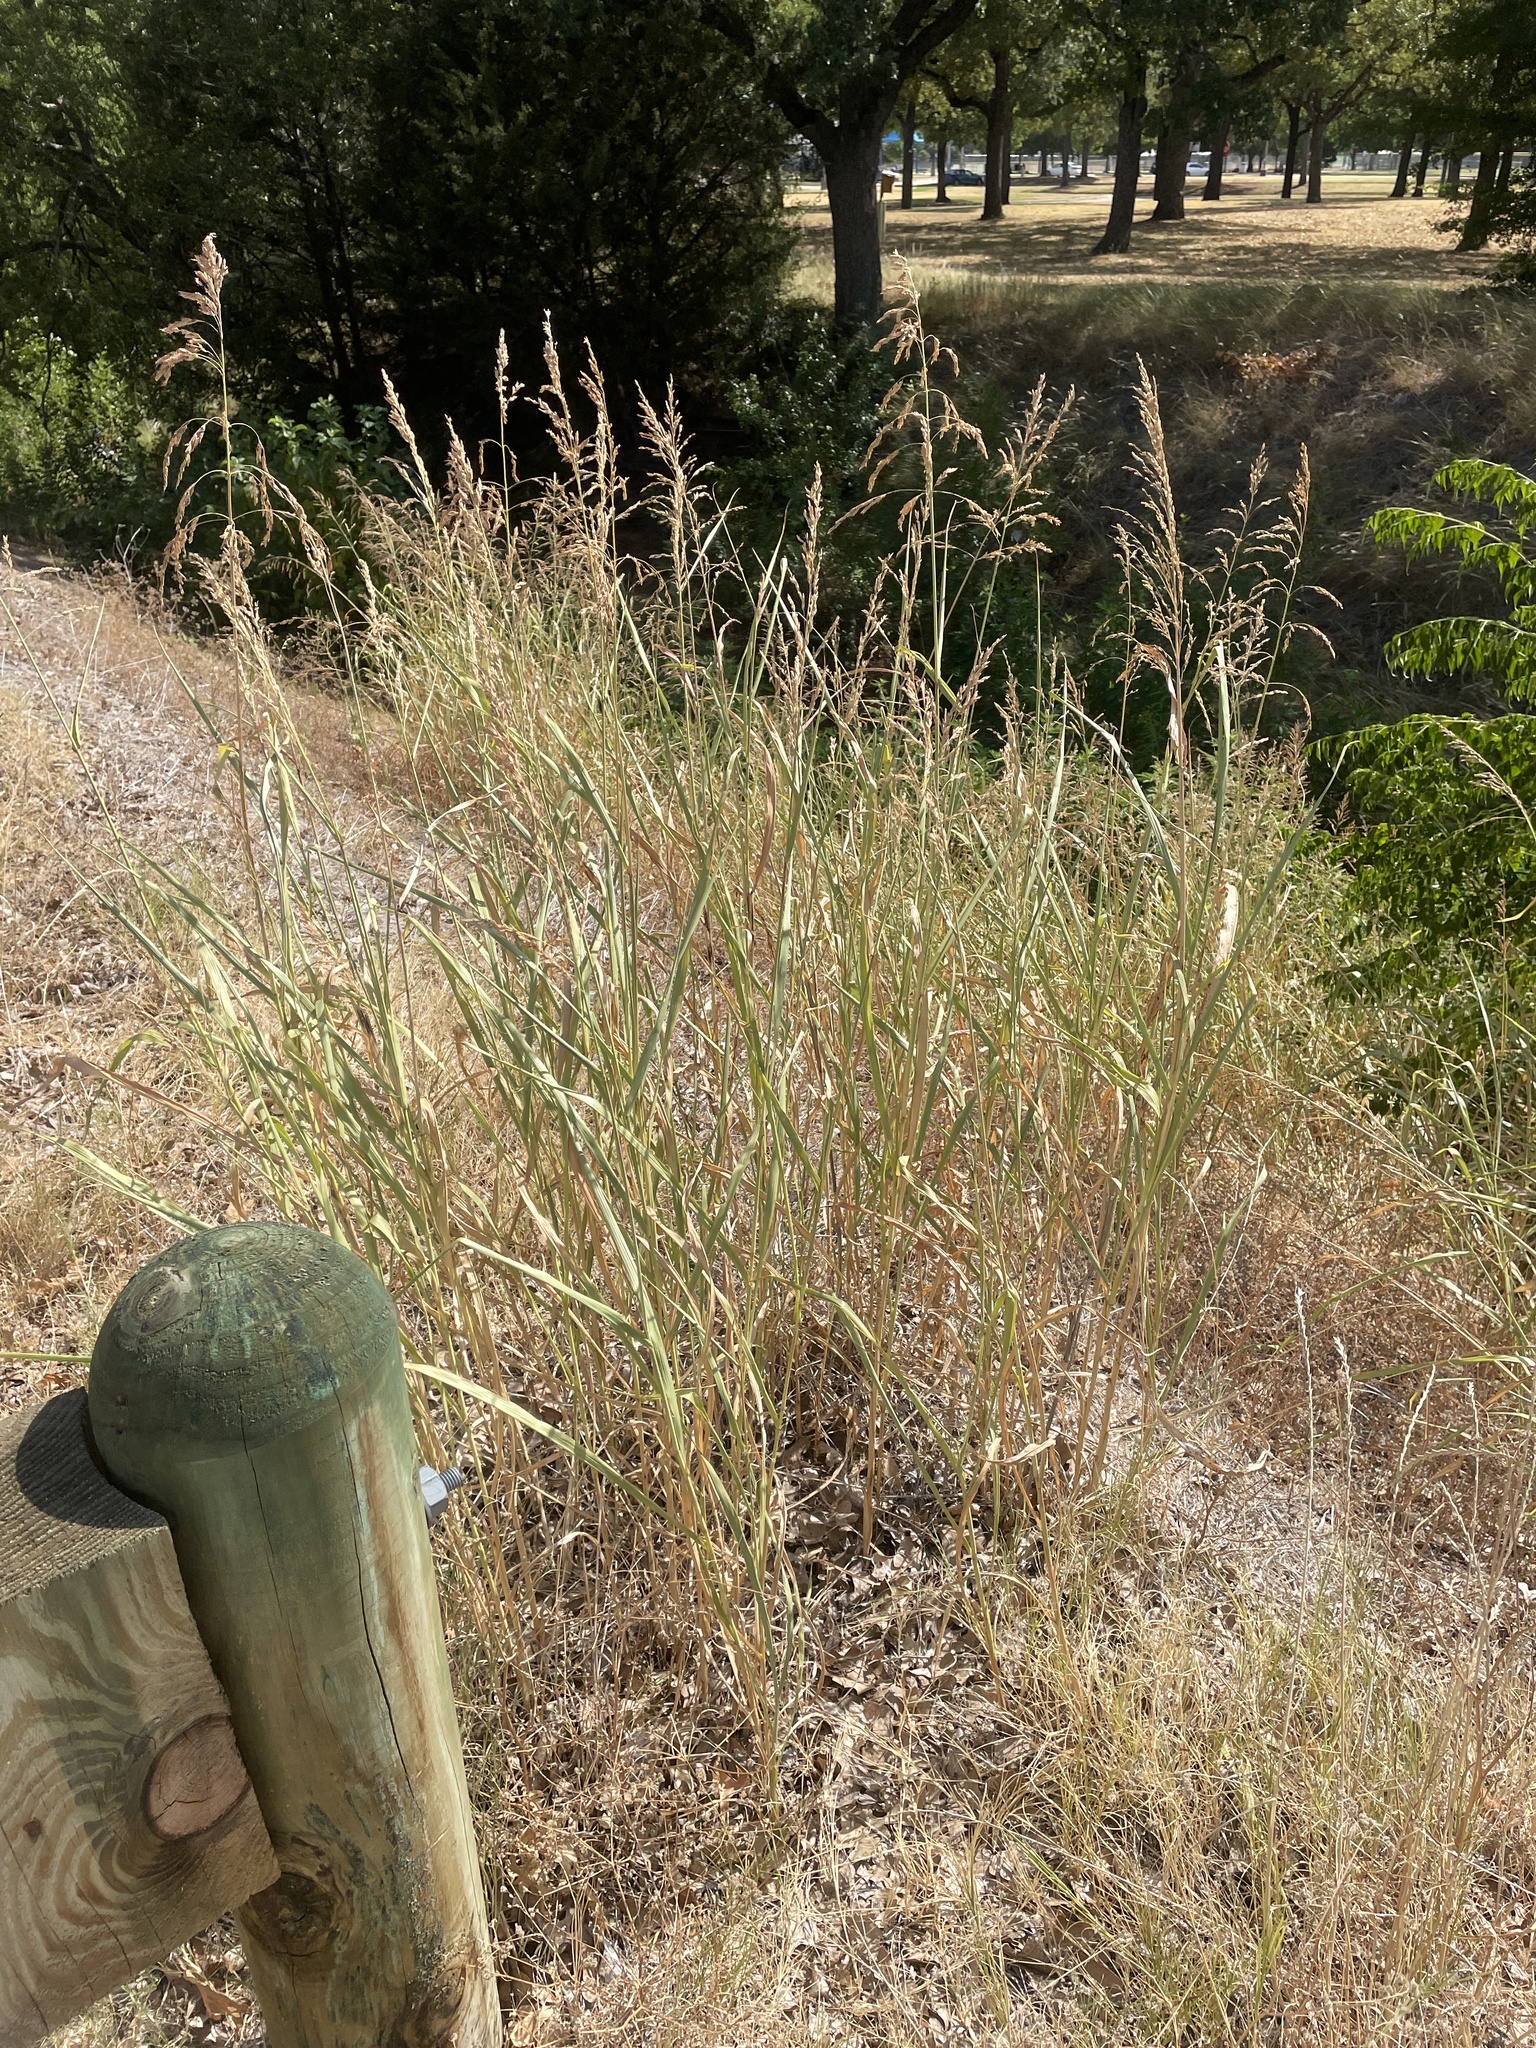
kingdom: Plantae
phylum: Tracheophyta
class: Liliopsida
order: Poales
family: Poaceae
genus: Sorghum
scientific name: Sorghum halepense
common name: Johnson-grass
